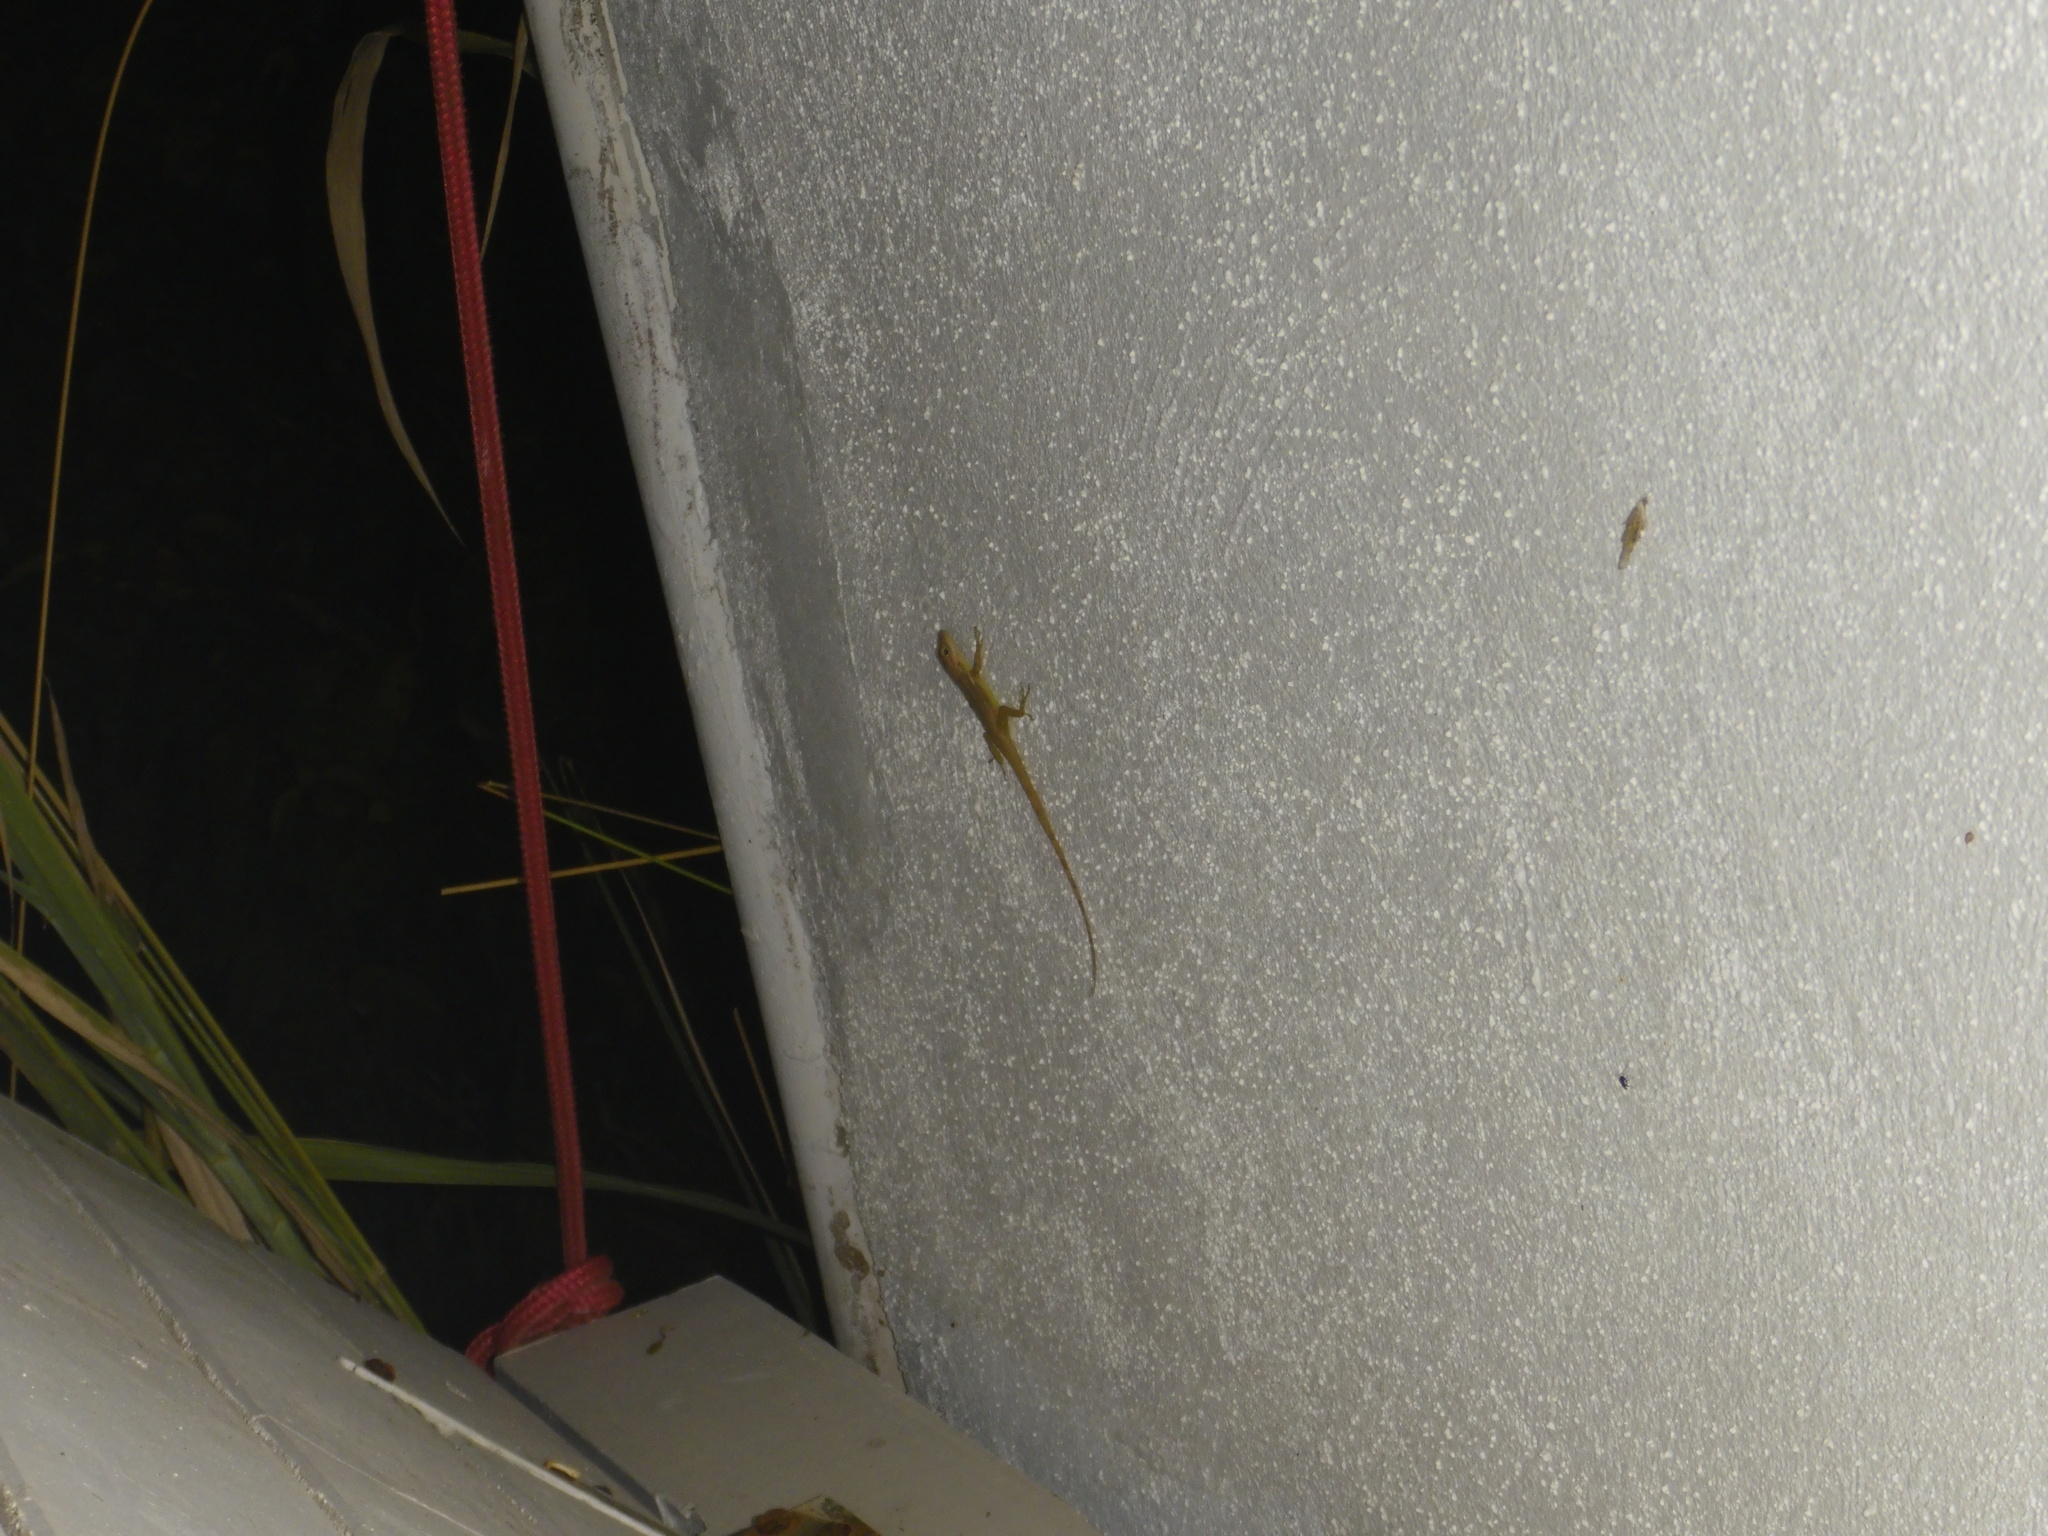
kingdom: Animalia
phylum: Chordata
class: Squamata
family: Dactyloidae
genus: Anolis
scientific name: Anolis sabanus
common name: Saba anole
